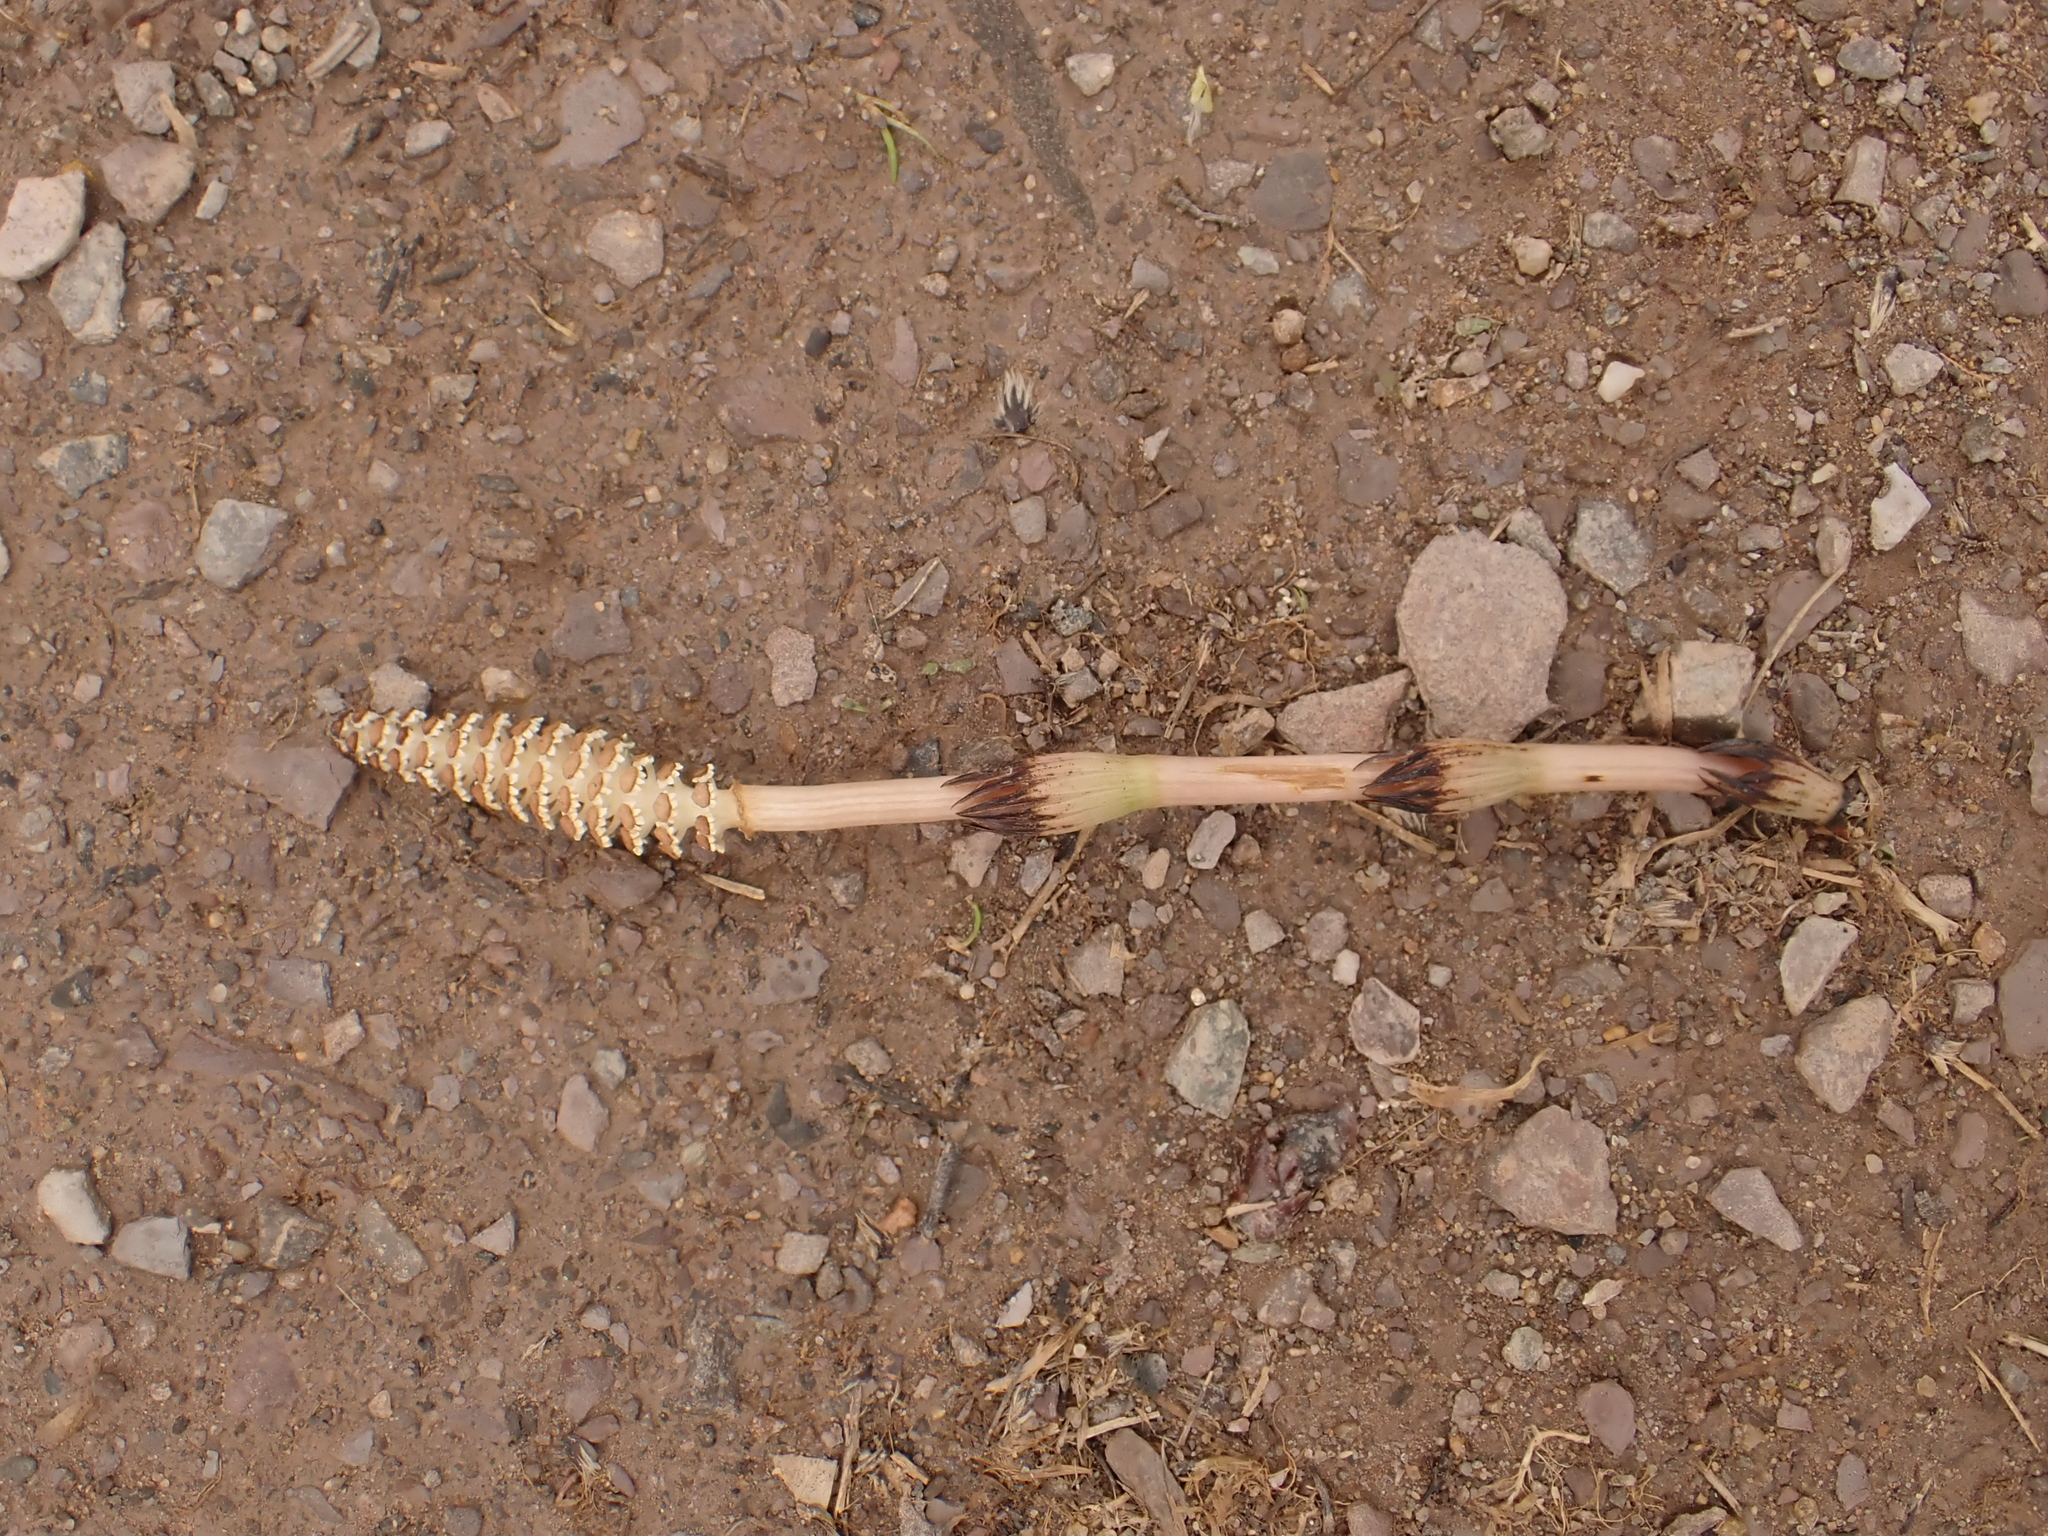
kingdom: Plantae
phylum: Tracheophyta
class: Polypodiopsida
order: Equisetales
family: Equisetaceae
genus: Equisetum
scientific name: Equisetum arvense
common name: Field horsetail
